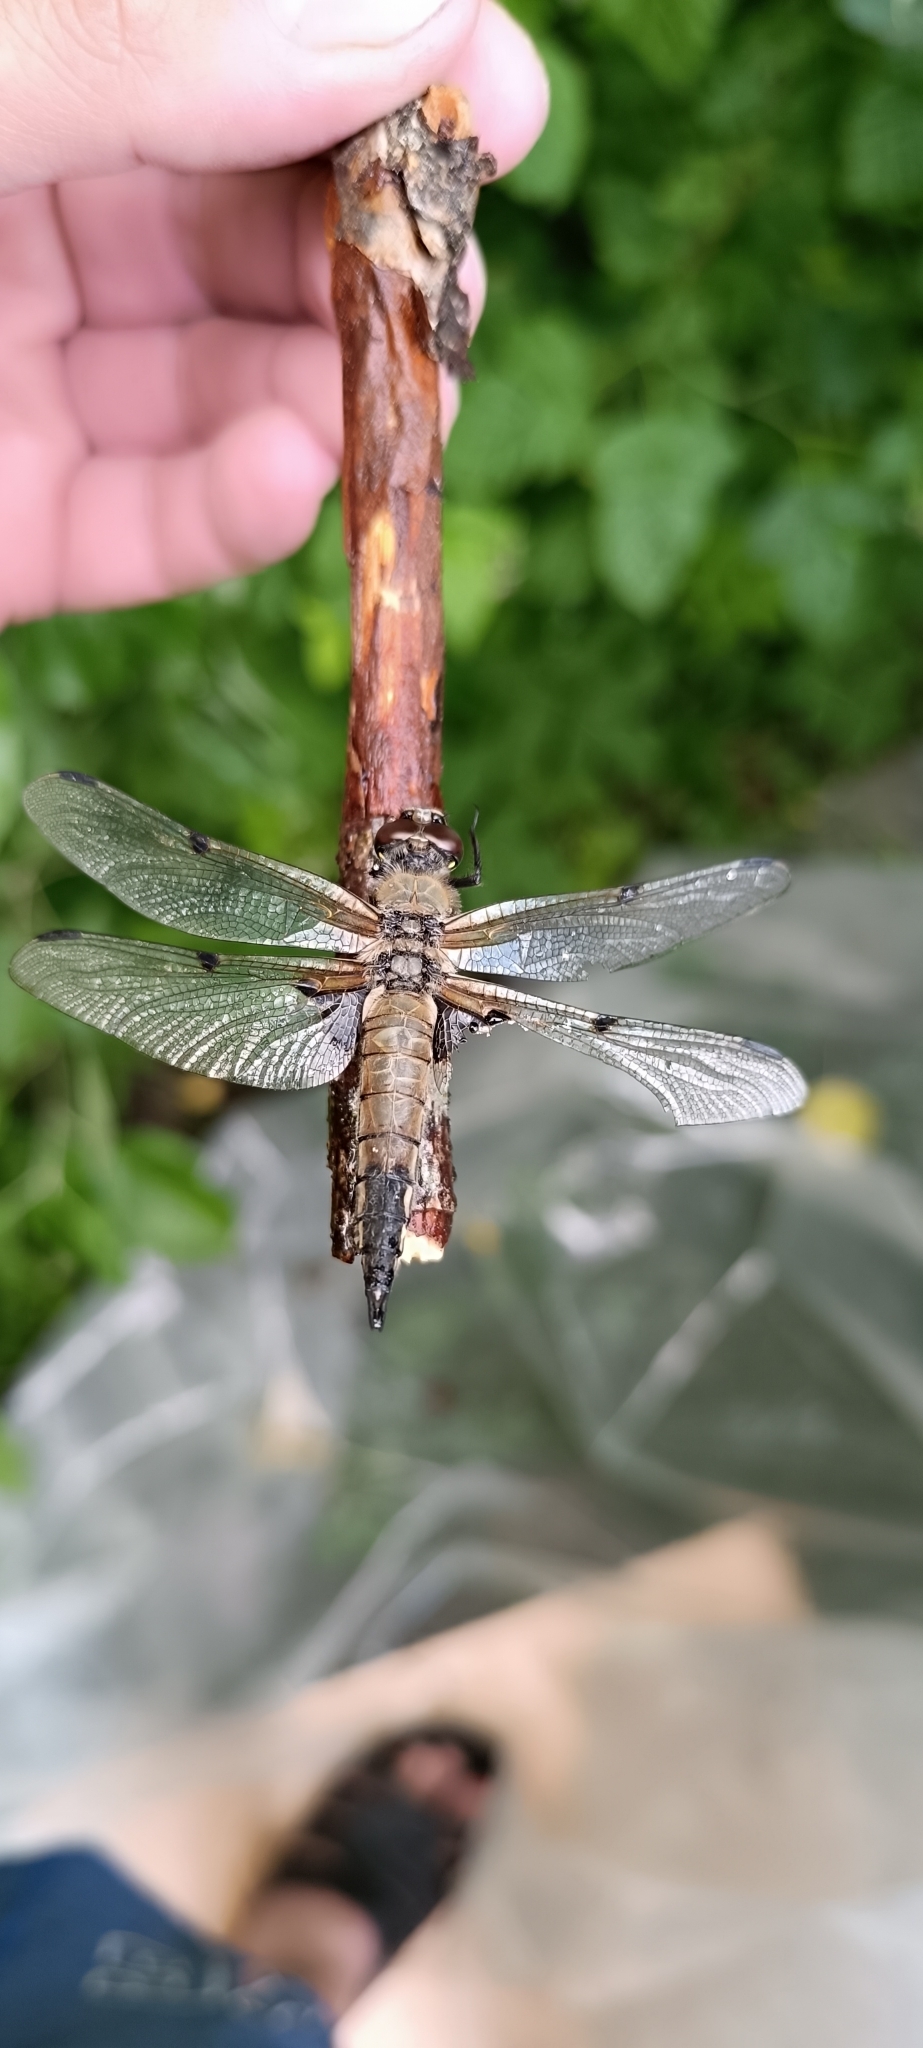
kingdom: Animalia
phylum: Arthropoda
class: Insecta
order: Odonata
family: Libellulidae
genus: Libellula
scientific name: Libellula quadrimaculata
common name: Four-spotted chaser
